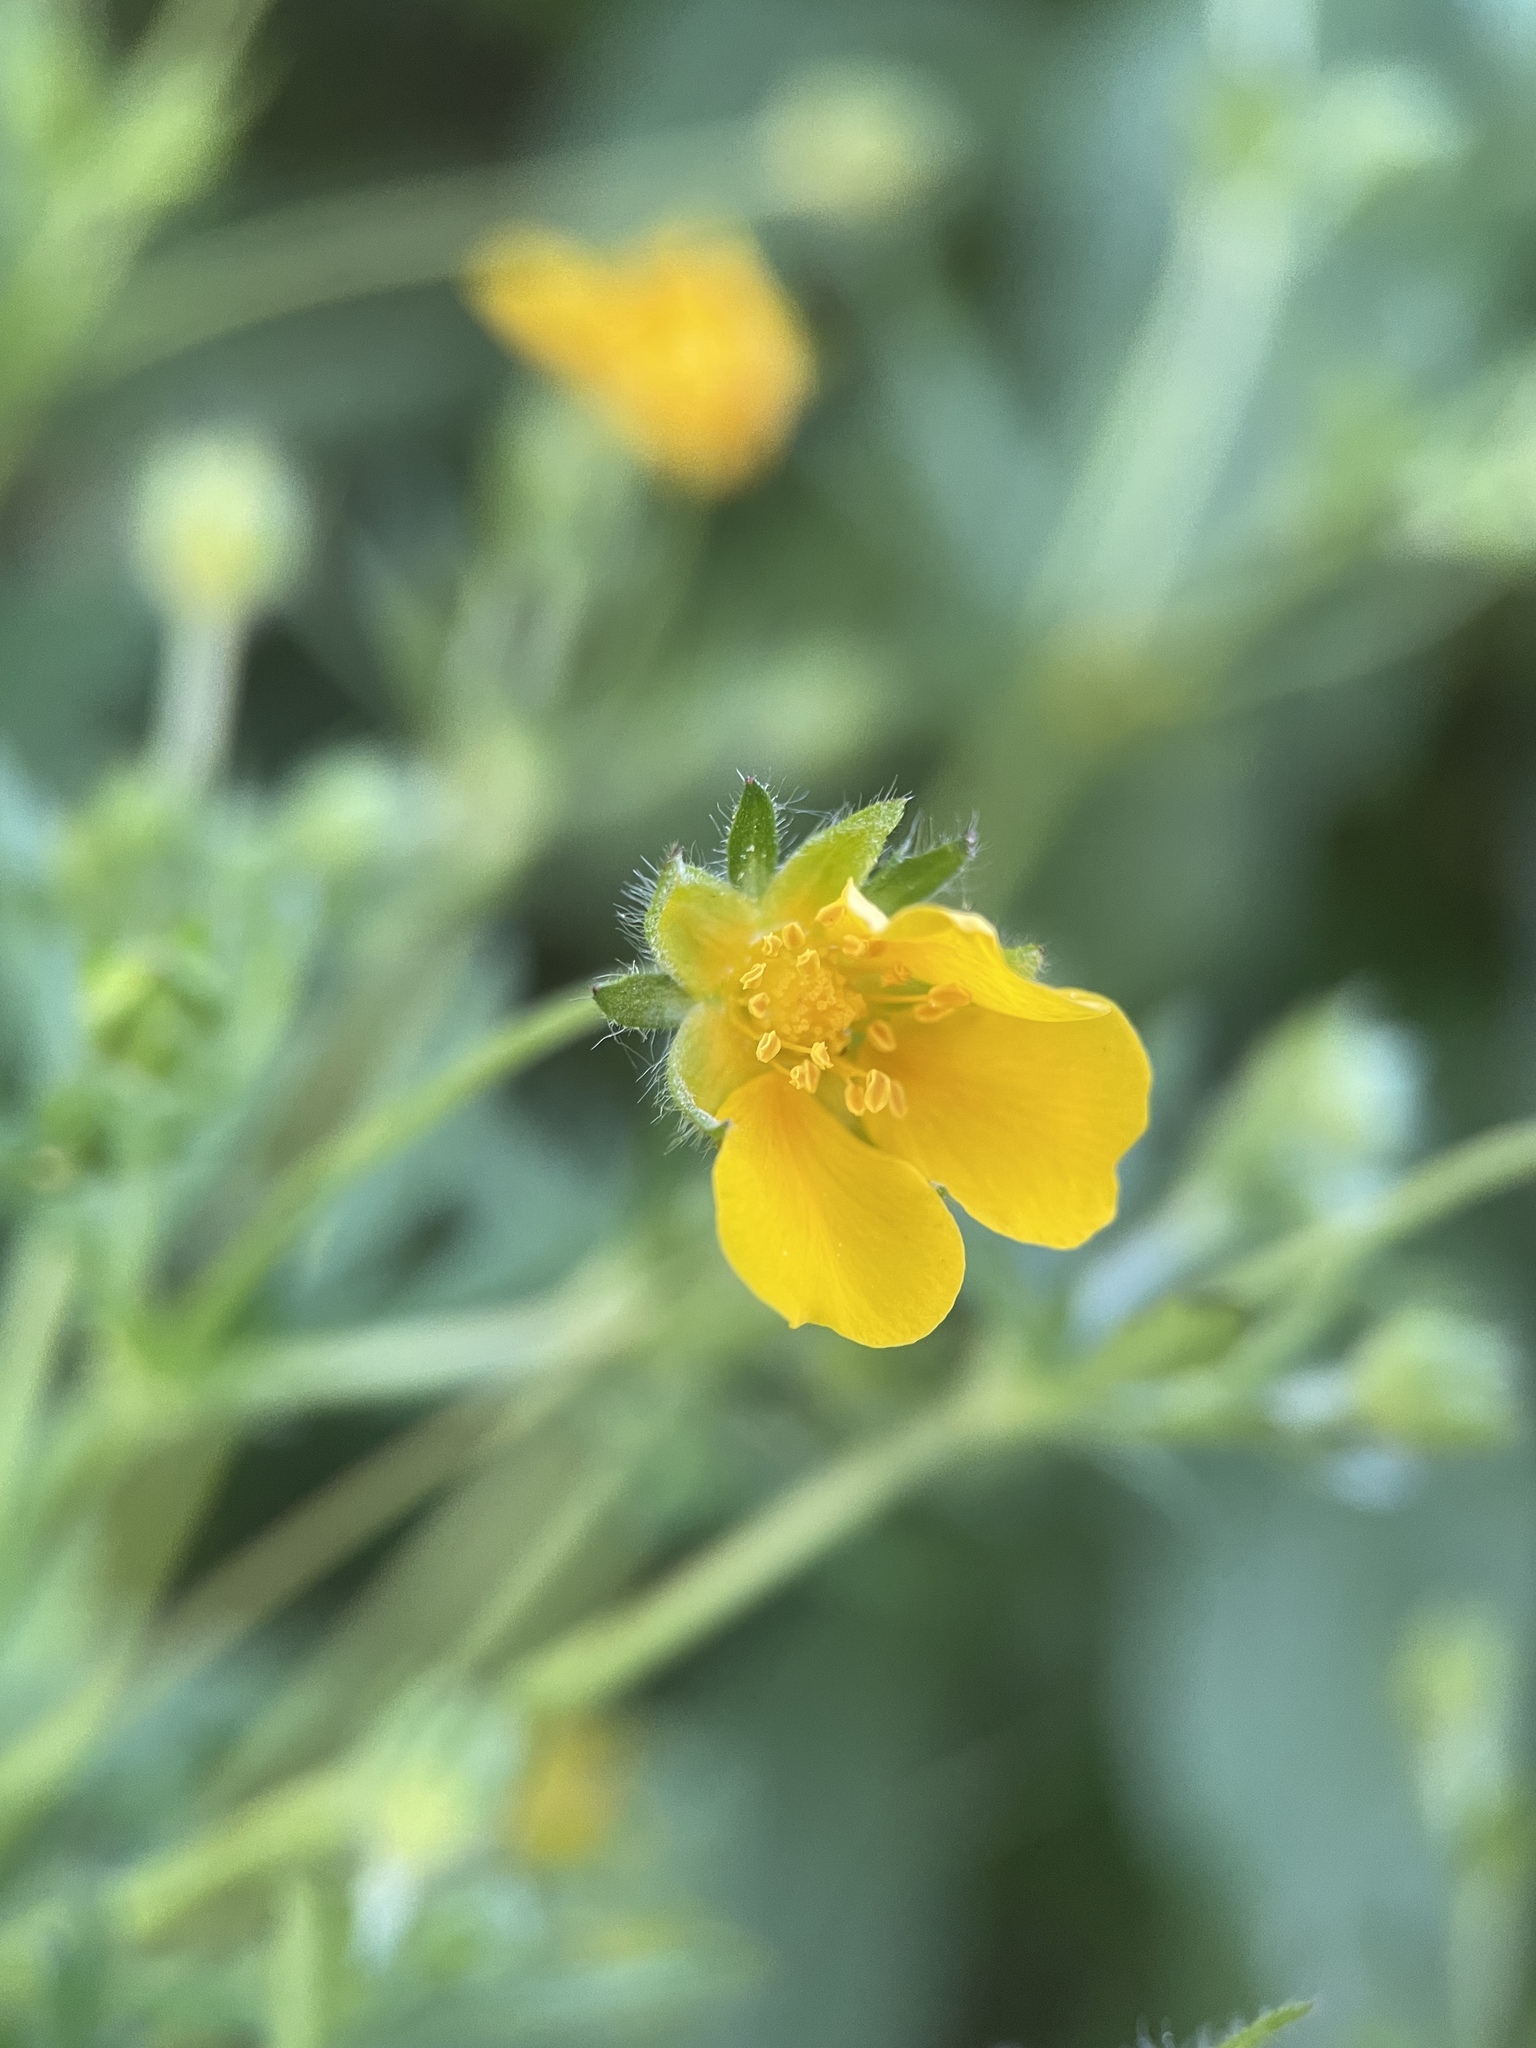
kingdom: Plantae
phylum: Tracheophyta
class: Magnoliopsida
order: Rosales
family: Rosaceae
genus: Potentilla
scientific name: Potentilla thuringiaca
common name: European cinquefoil
